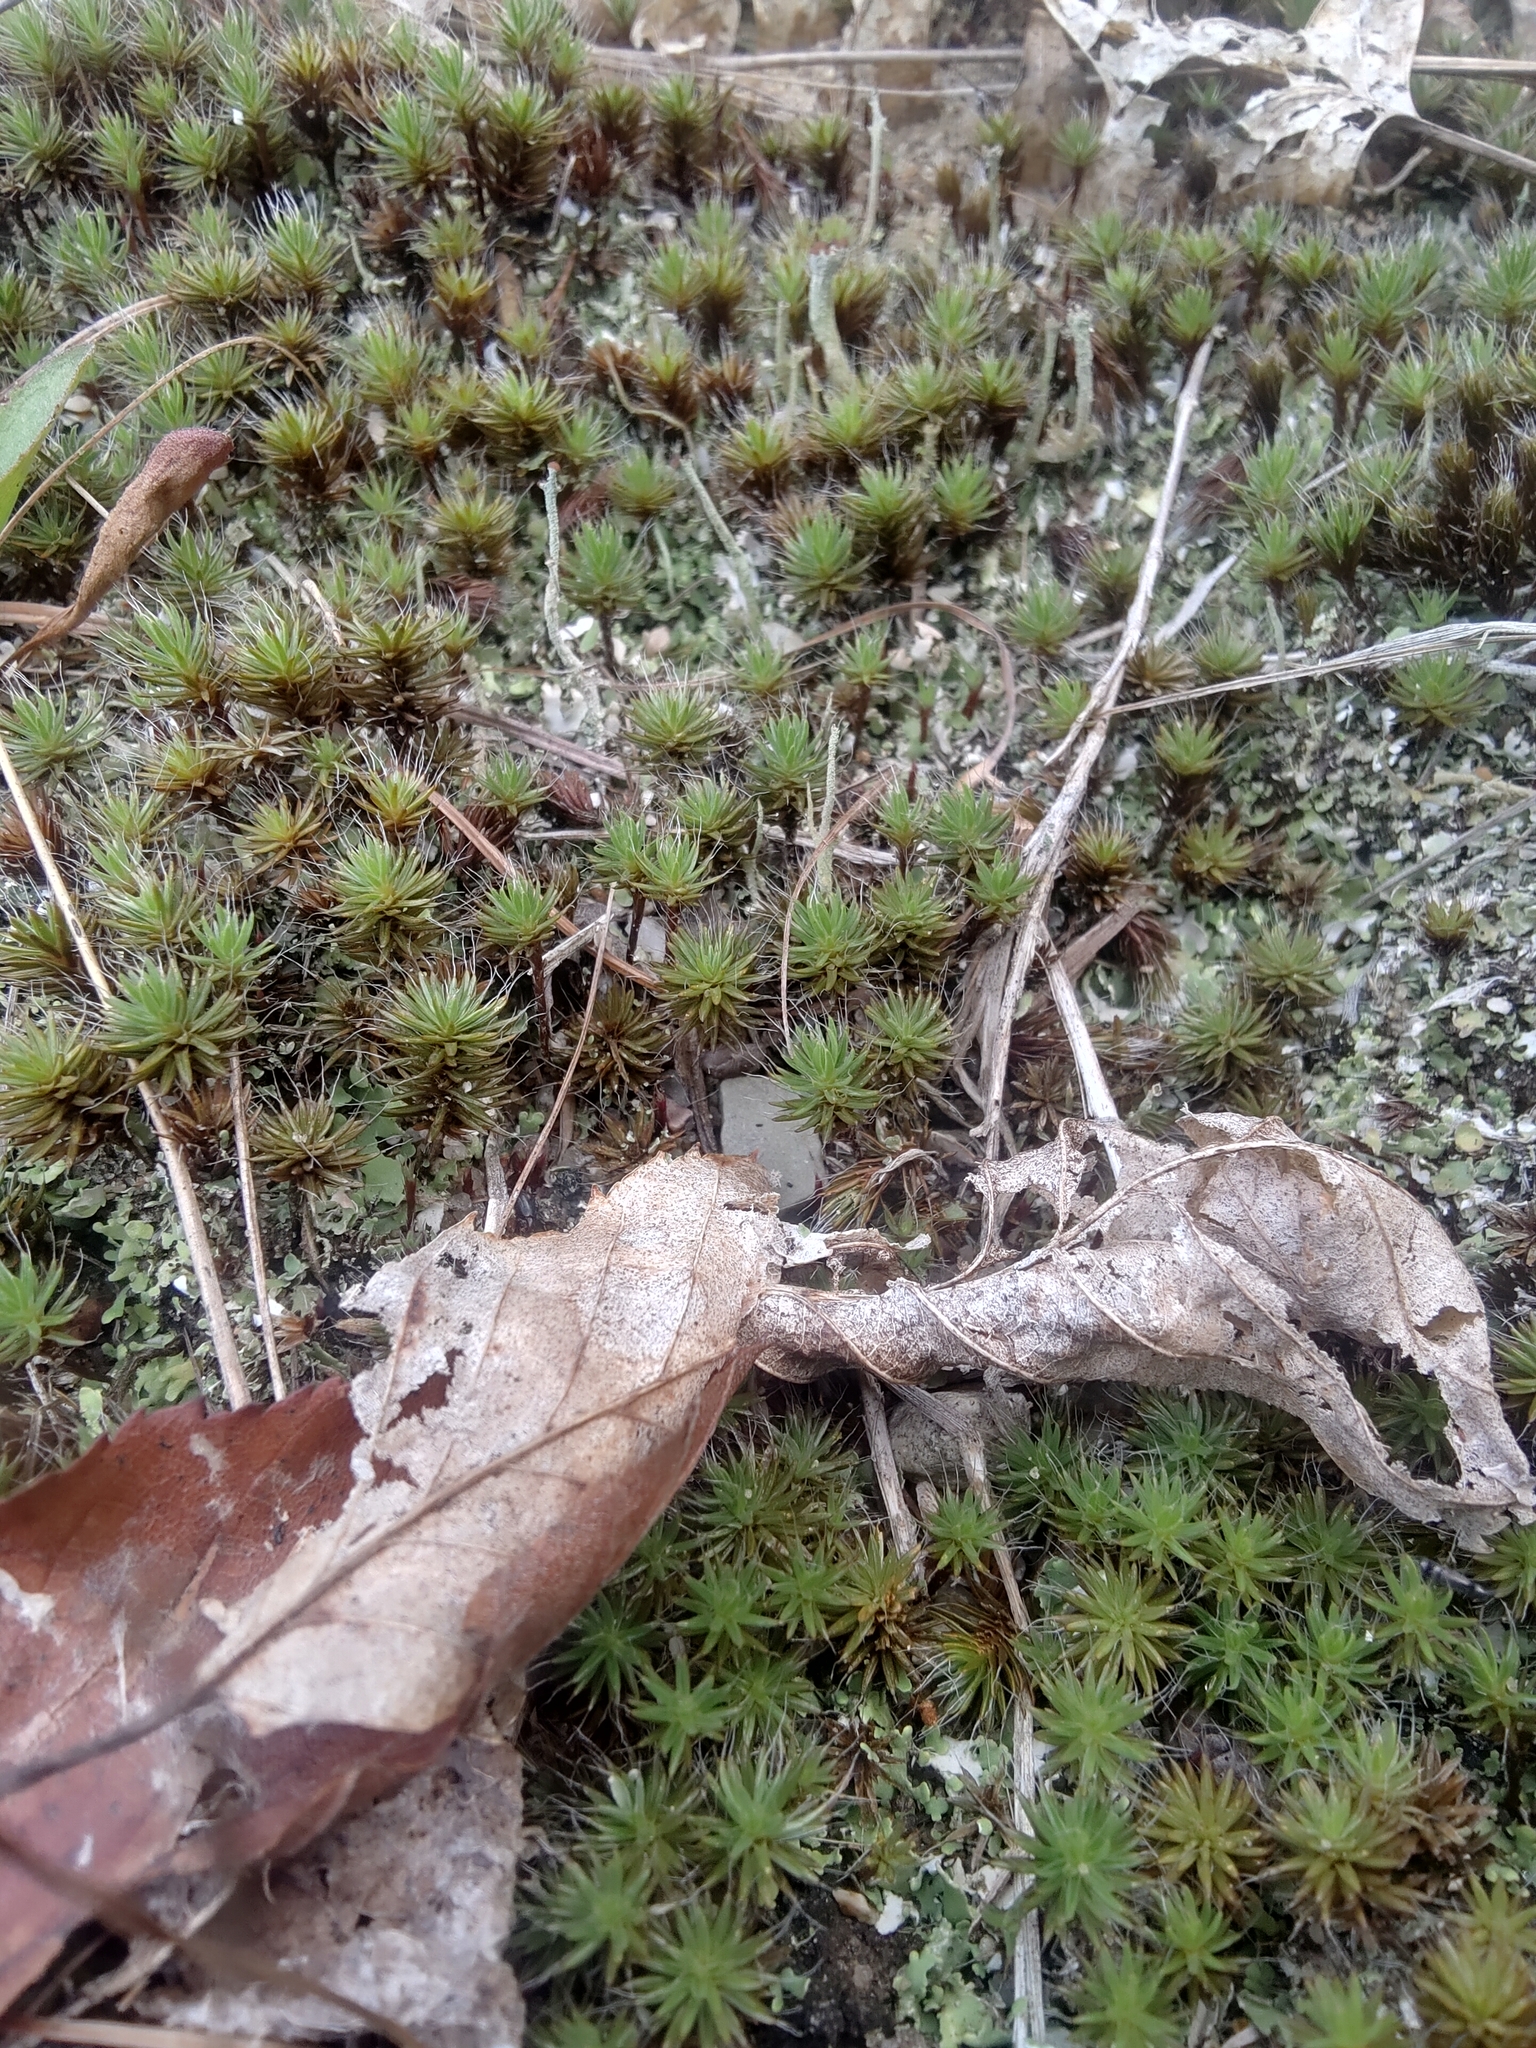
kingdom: Plantae
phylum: Bryophyta
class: Polytrichopsida
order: Polytrichales
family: Polytrichaceae
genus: Polytrichum
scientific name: Polytrichum piliferum
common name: Bristly haircap
